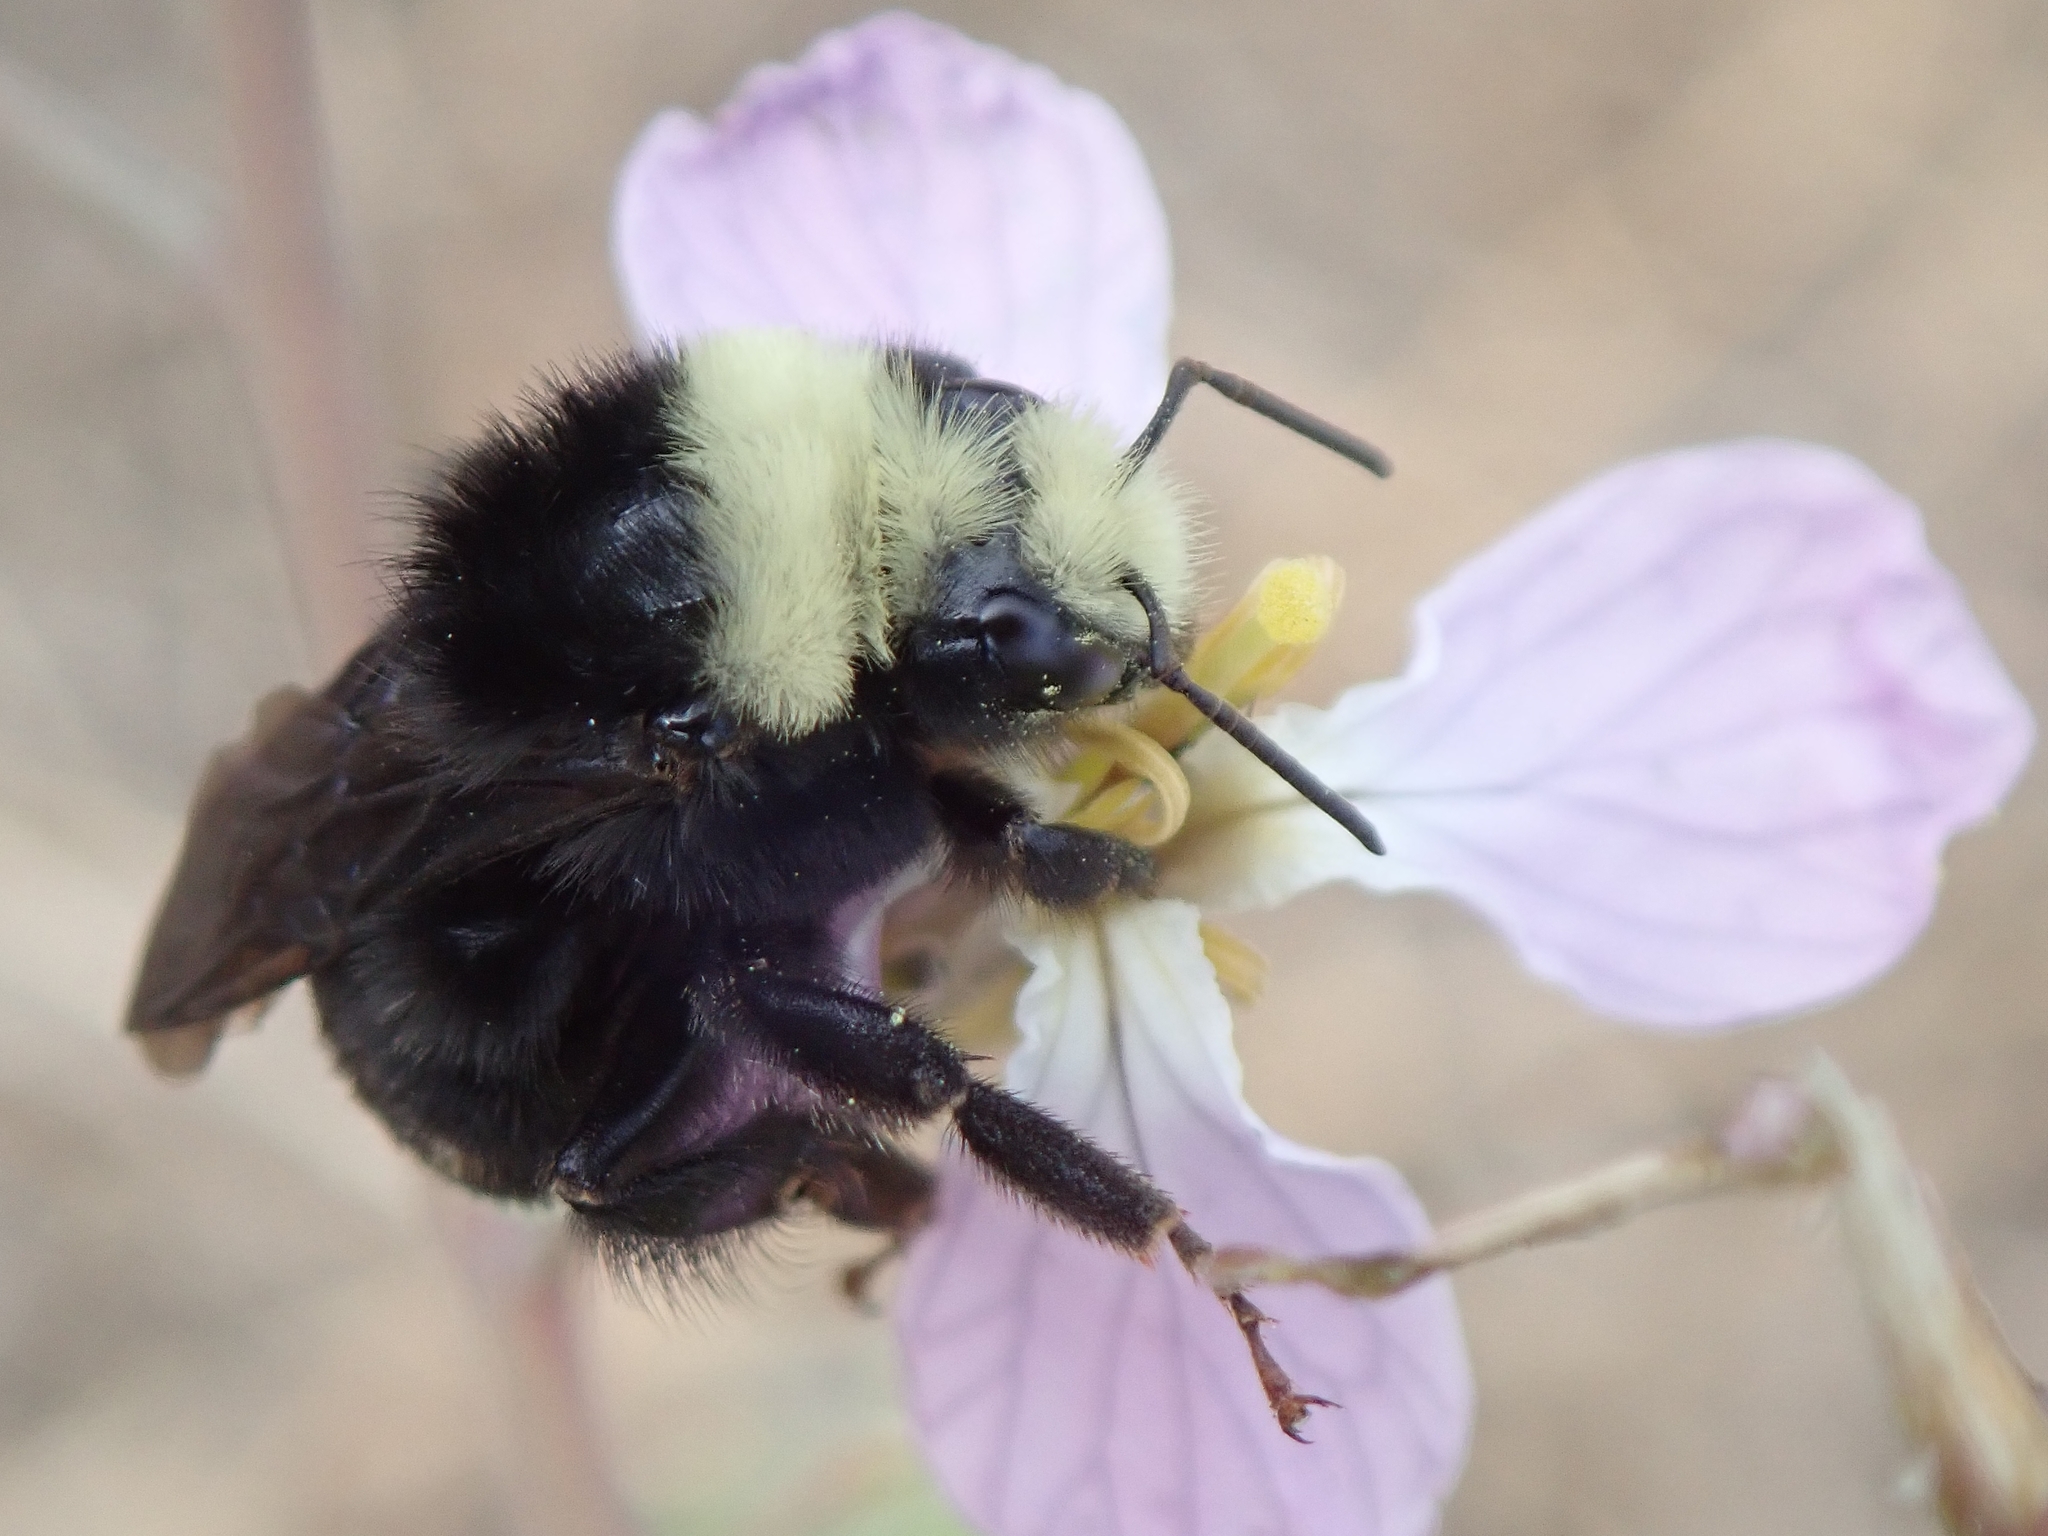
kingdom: Animalia
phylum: Arthropoda
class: Insecta
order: Hymenoptera
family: Apidae
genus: Bombus
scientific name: Bombus vosnesenskii
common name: Vosnesensky bumble bee
